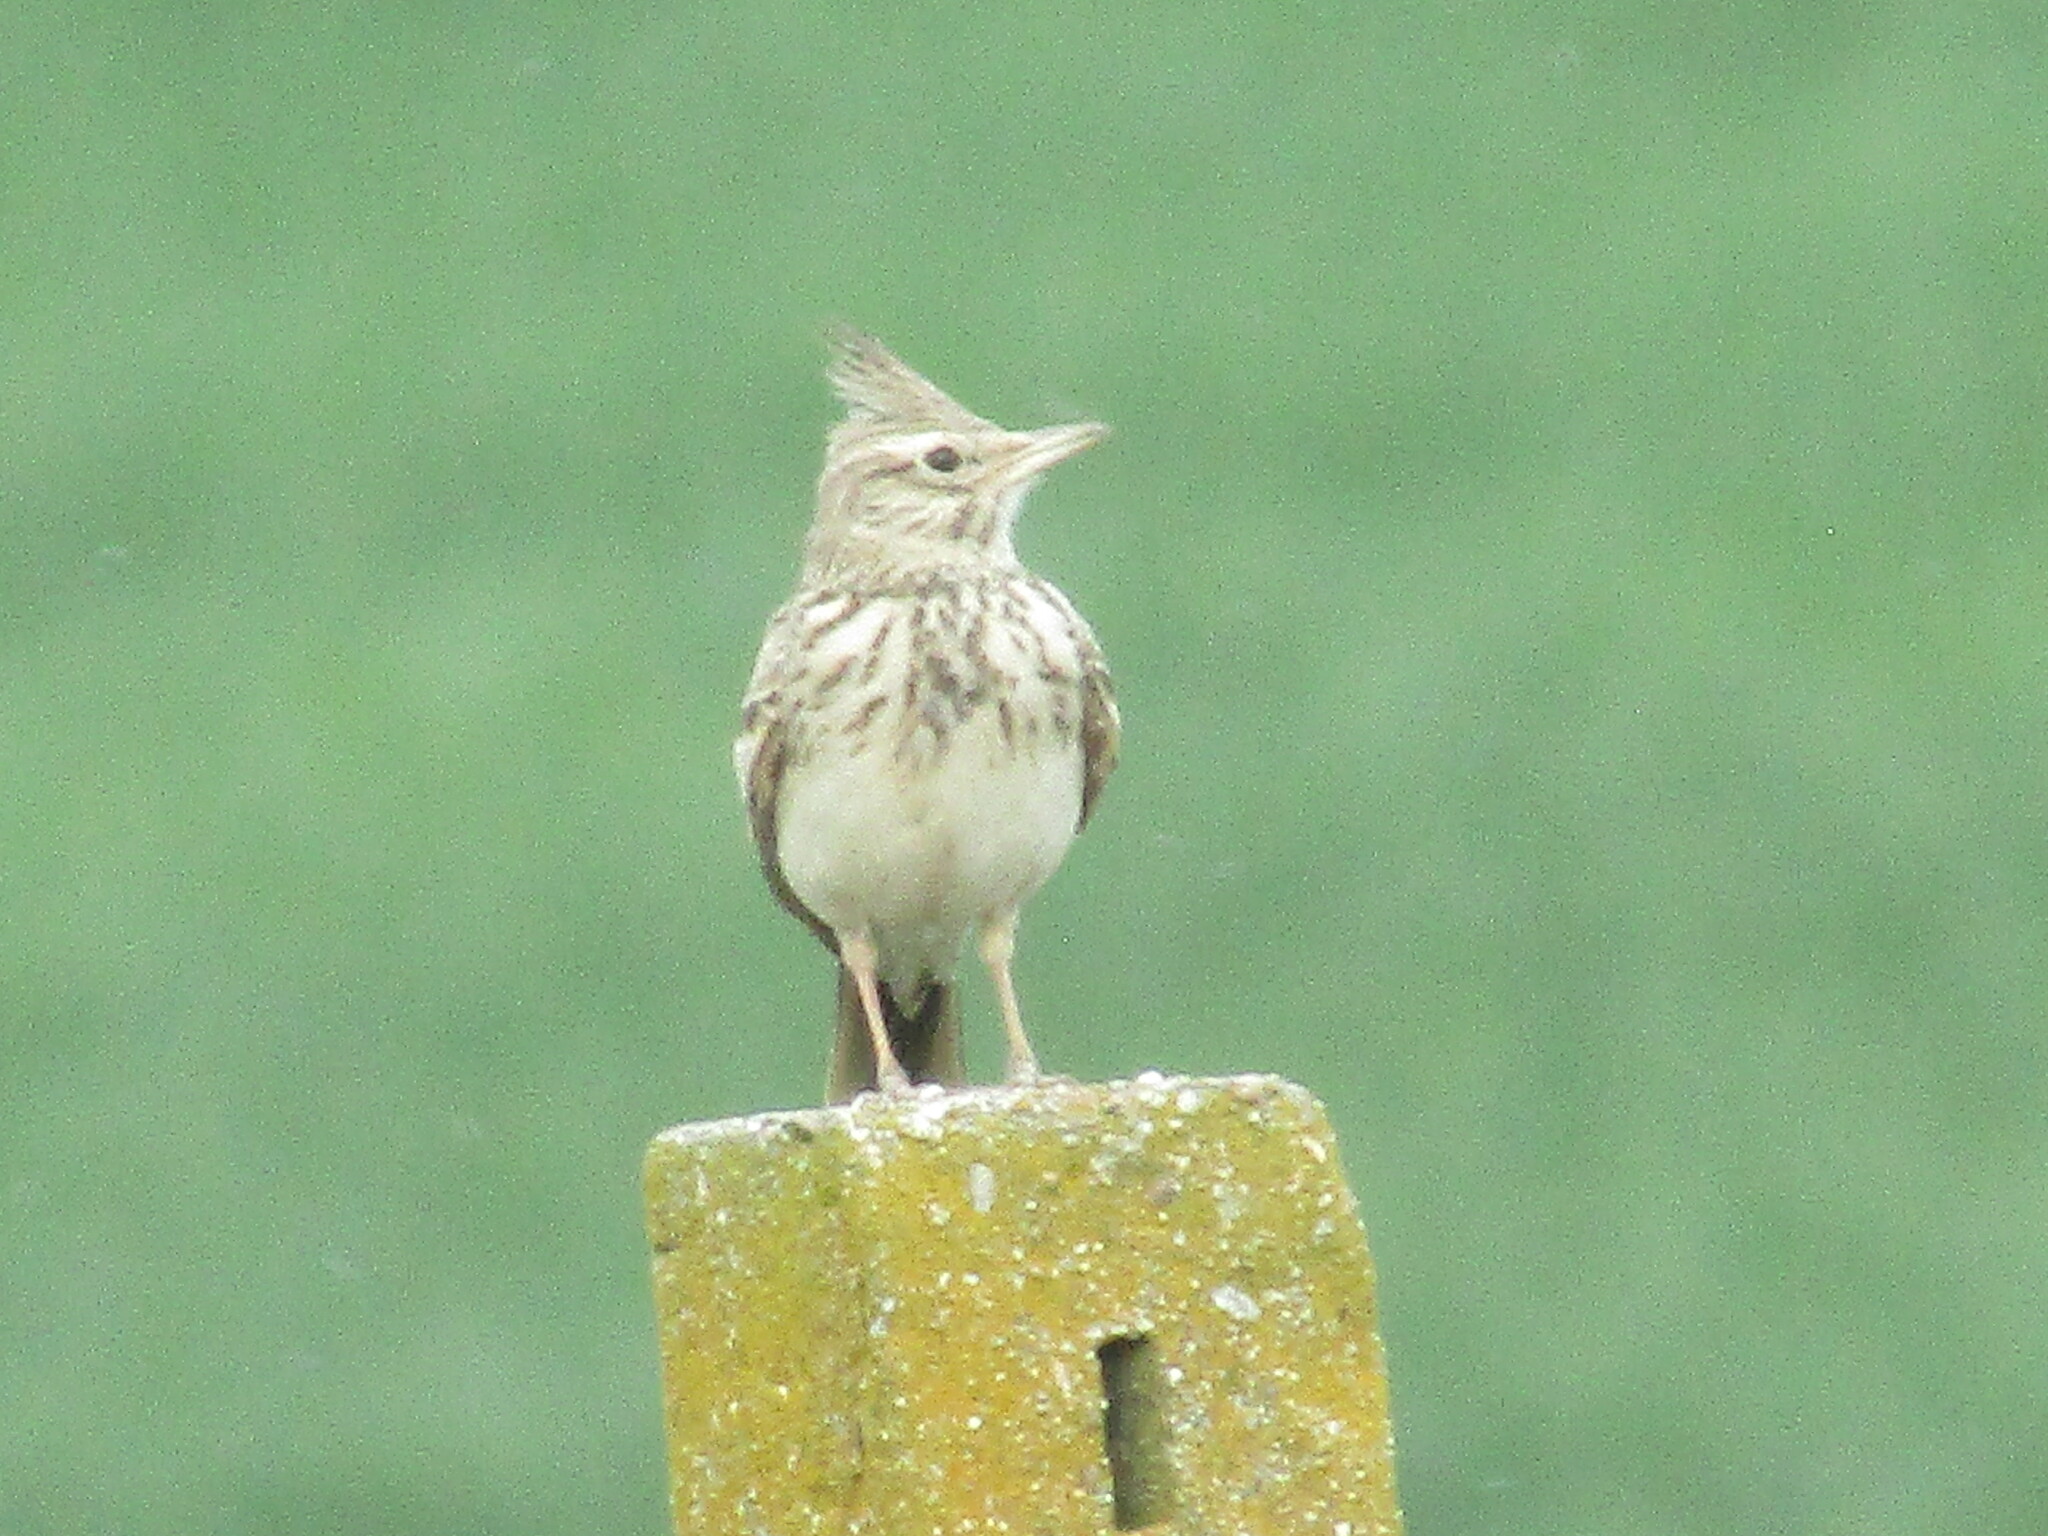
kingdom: Animalia
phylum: Chordata
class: Aves
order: Passeriformes
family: Alaudidae
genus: Galerida
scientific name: Galerida cristata
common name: Crested lark
